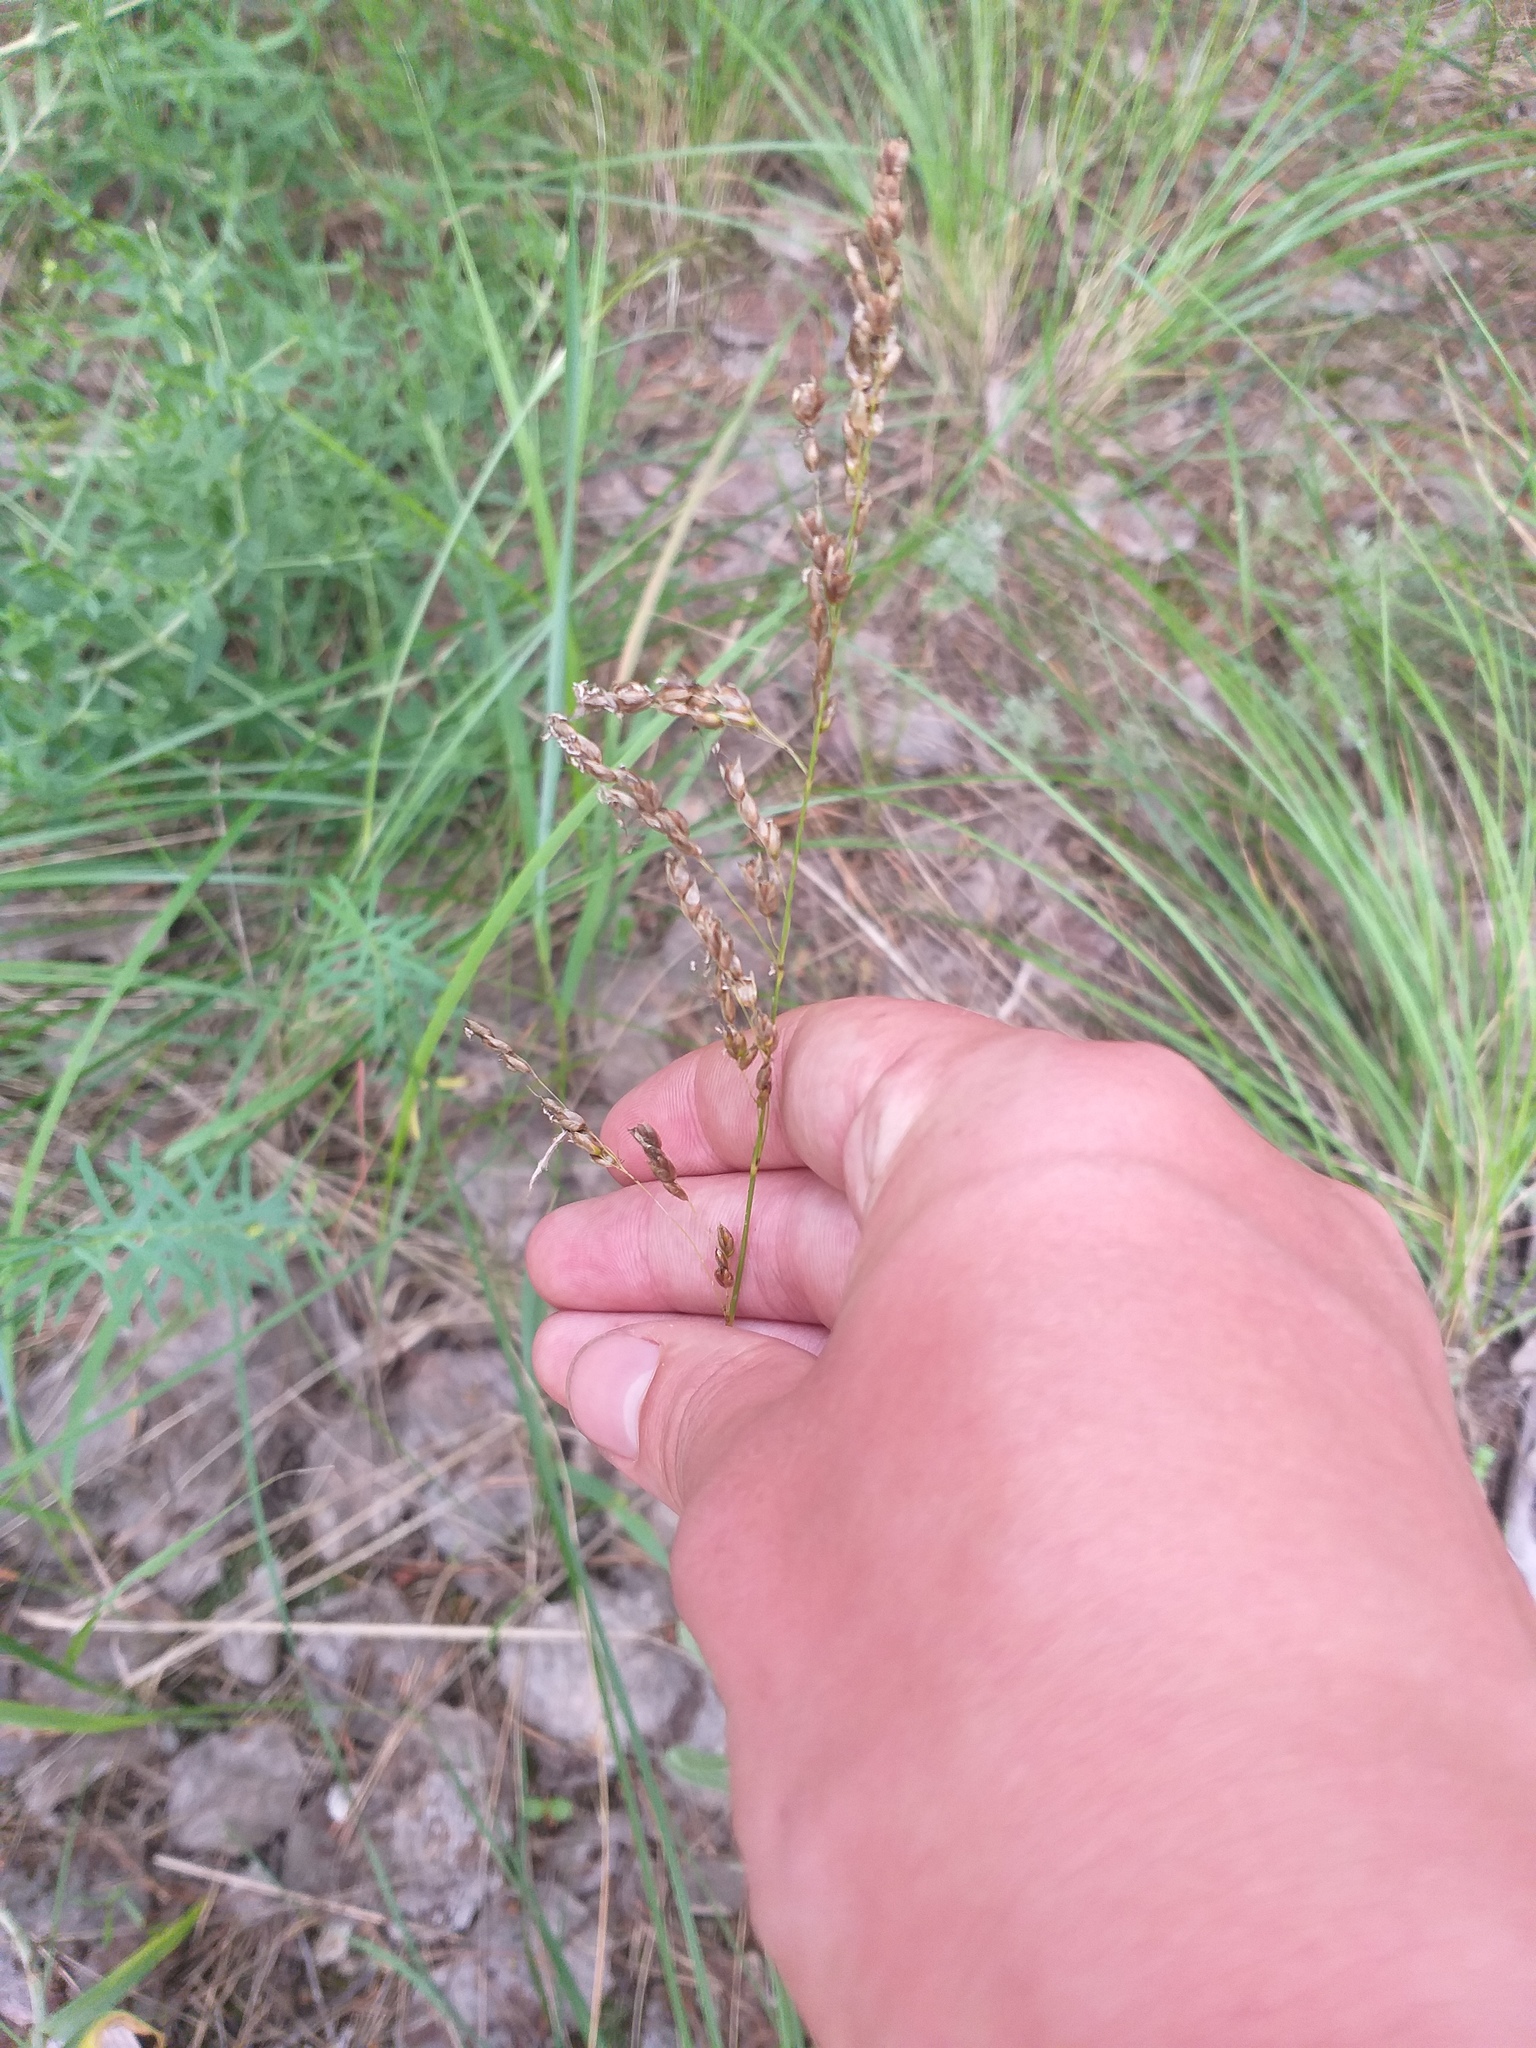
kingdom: Plantae
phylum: Tracheophyta
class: Liliopsida
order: Poales
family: Poaceae
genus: Anthoxanthum
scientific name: Anthoxanthum repens
